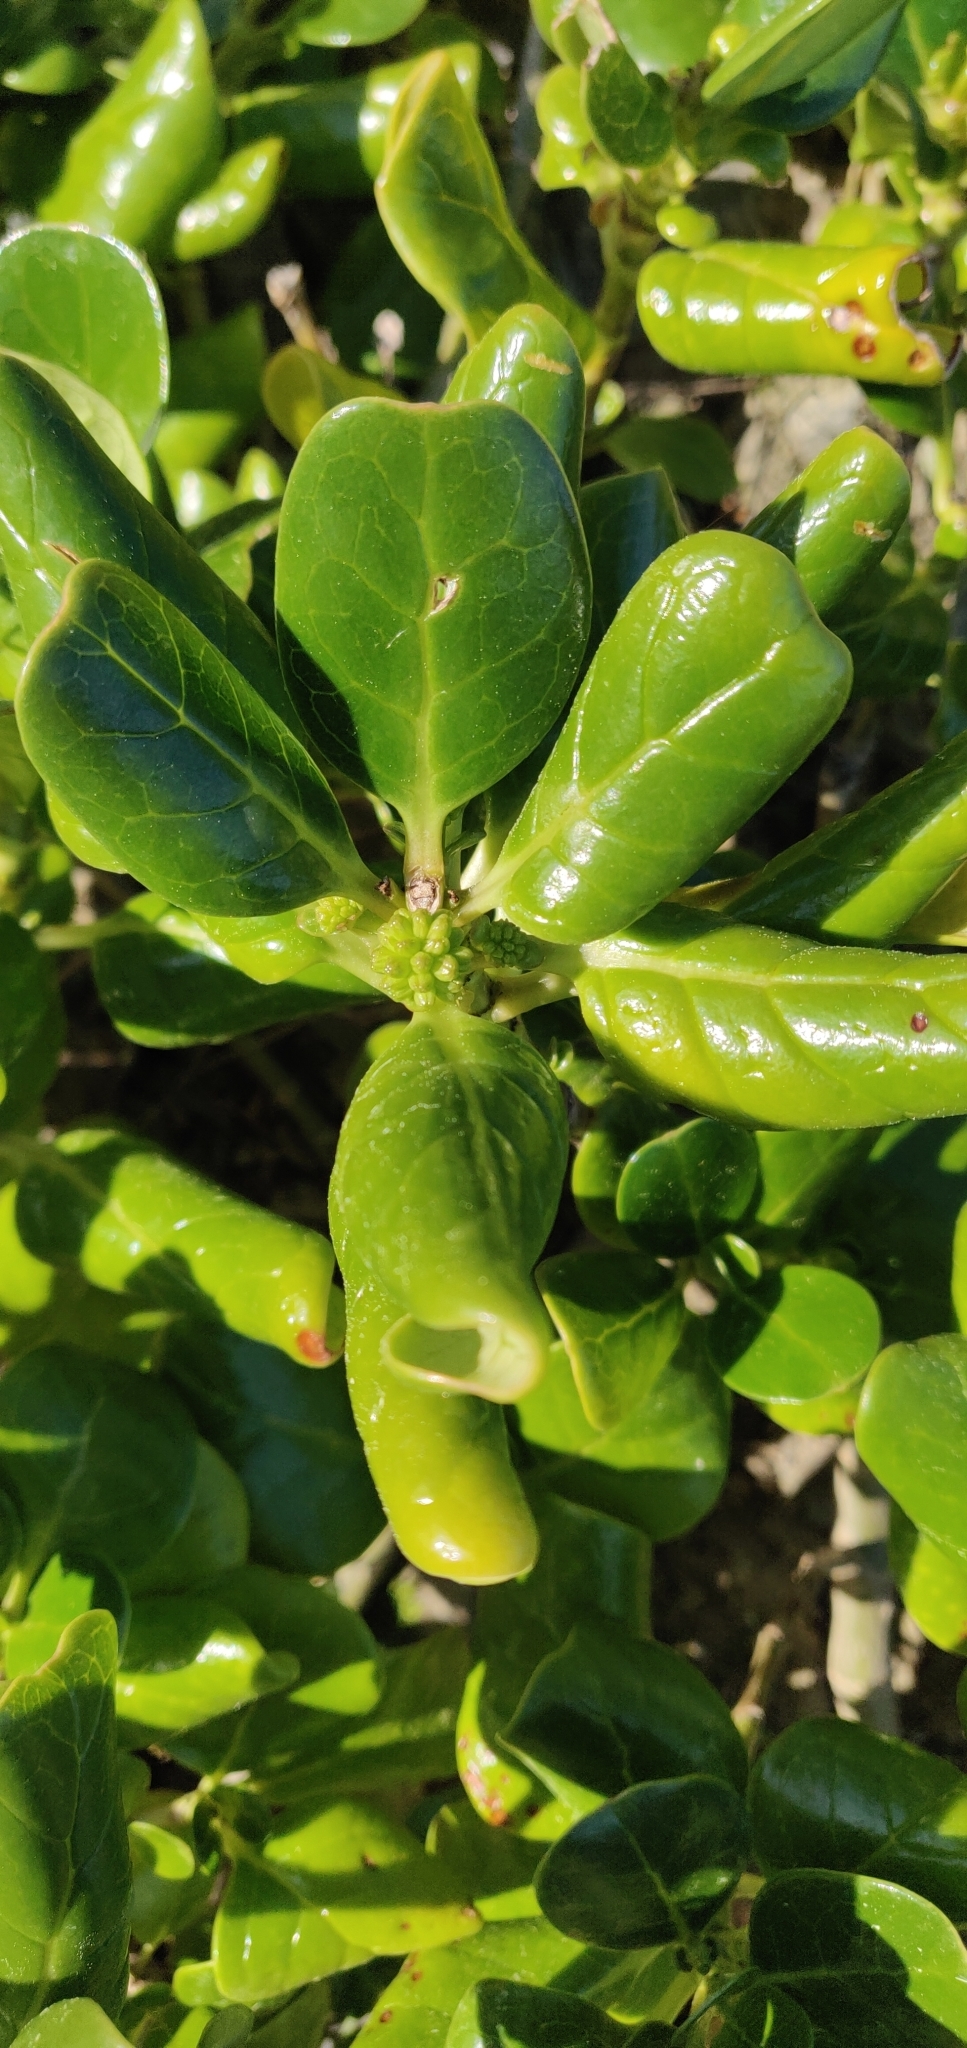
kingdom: Plantae
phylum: Tracheophyta
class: Magnoliopsida
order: Gentianales
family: Rubiaceae
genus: Coprosma
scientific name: Coprosma repens
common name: Tree bedstraw
